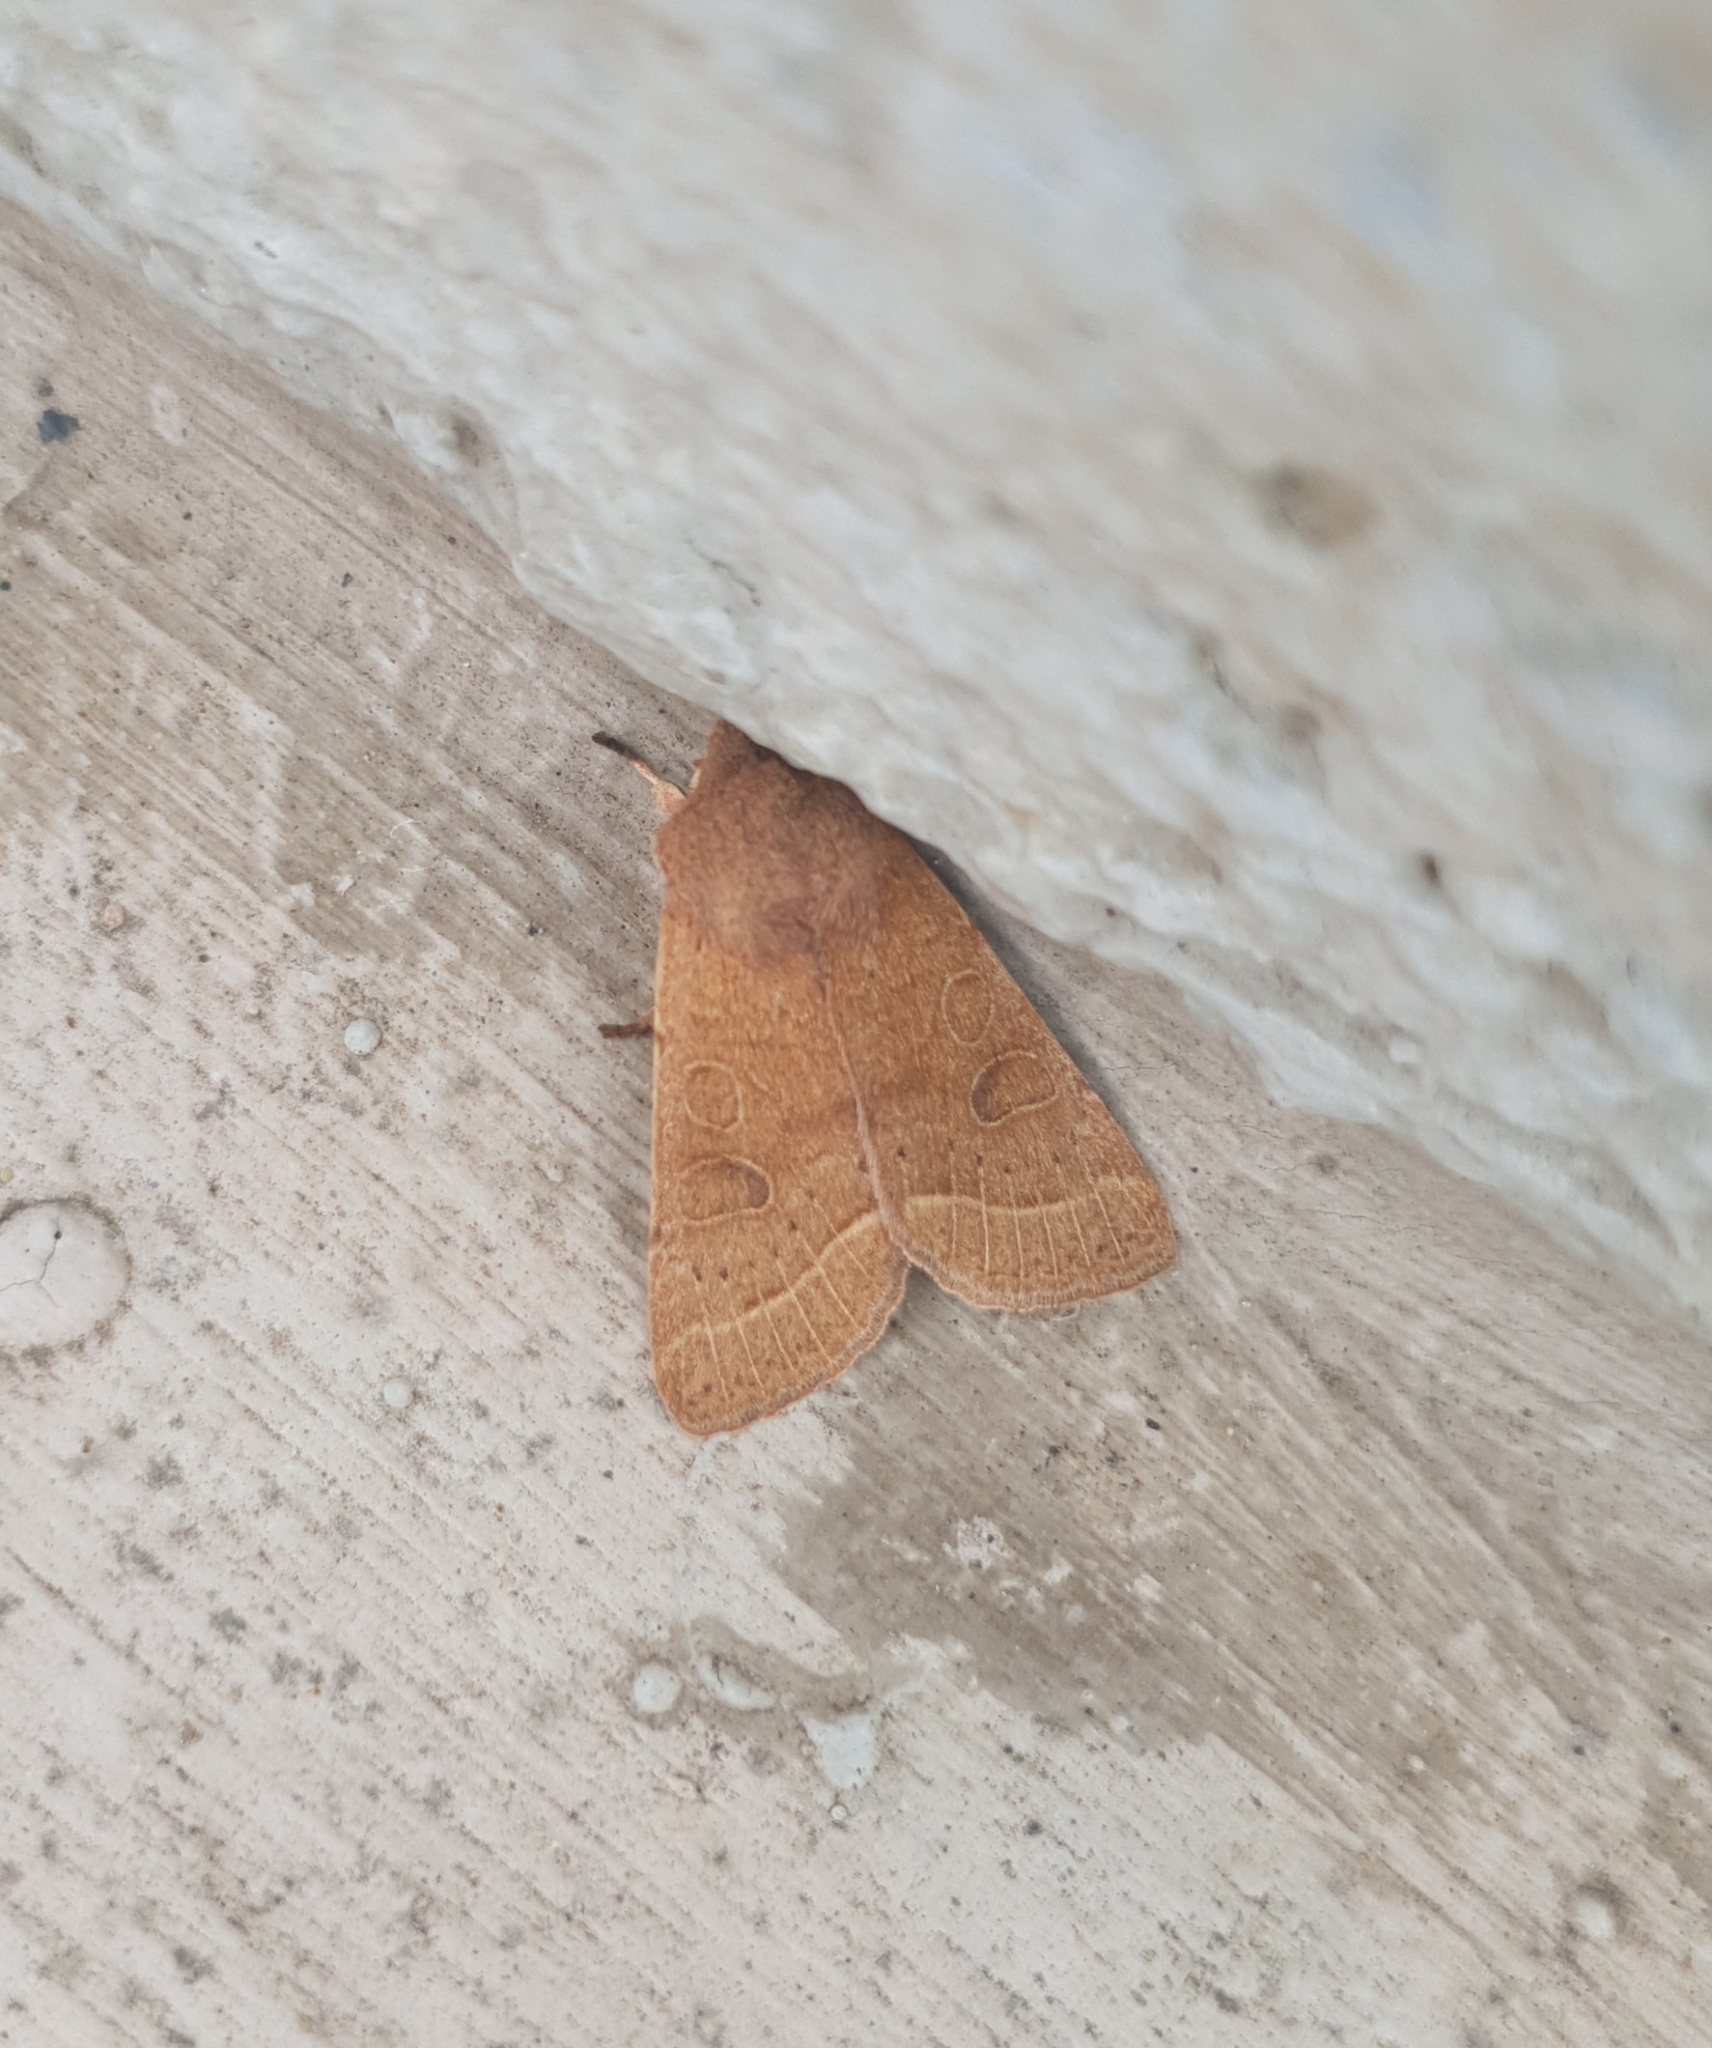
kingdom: Animalia
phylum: Arthropoda
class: Insecta
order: Lepidoptera
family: Noctuidae
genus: Orthosia
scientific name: Orthosia cerasi
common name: Common quaker
